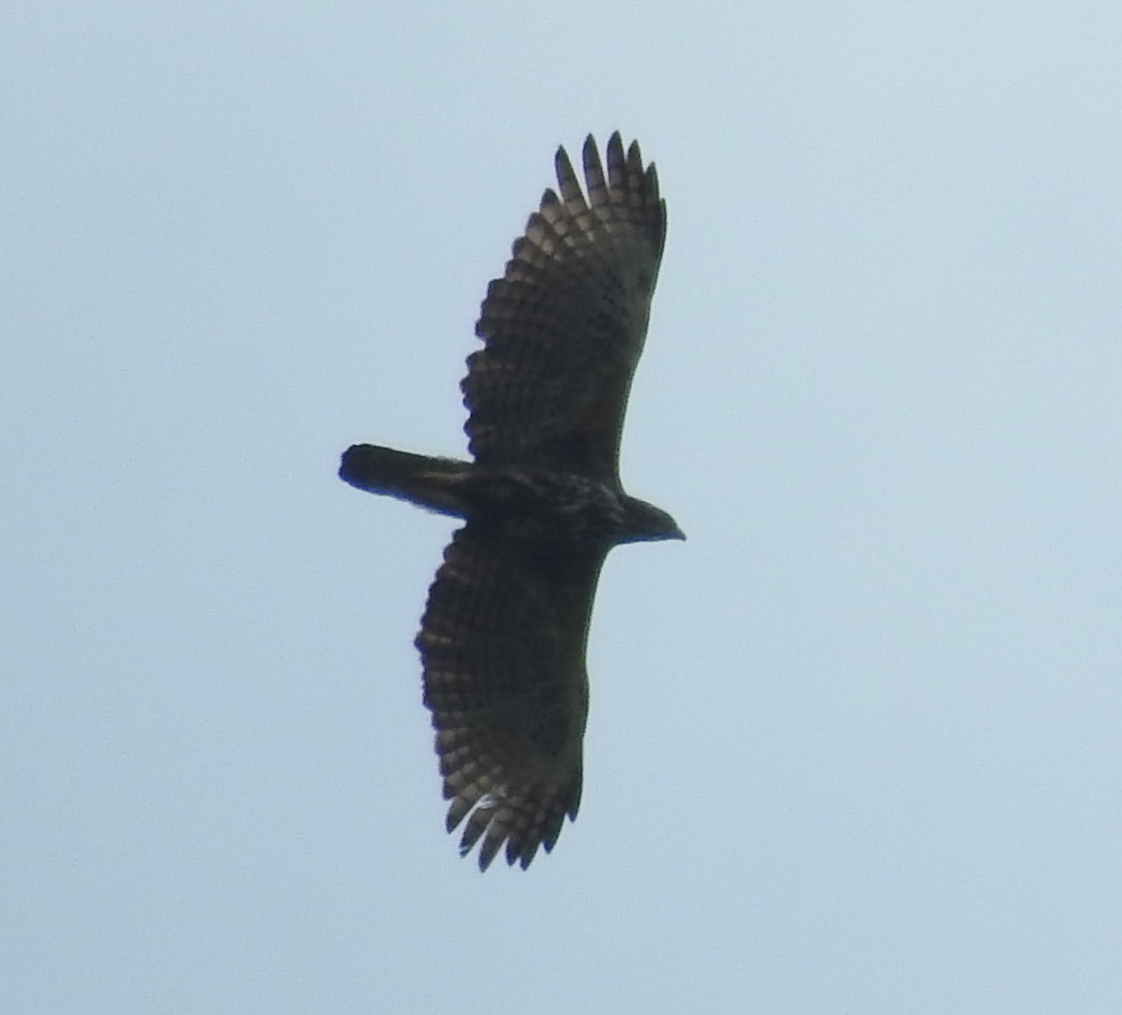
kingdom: Animalia
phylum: Chordata
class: Aves
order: Accipitriformes
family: Accipitridae
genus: Nisaetus
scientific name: Nisaetus cirrhatus
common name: Changeable hawk-eagle
